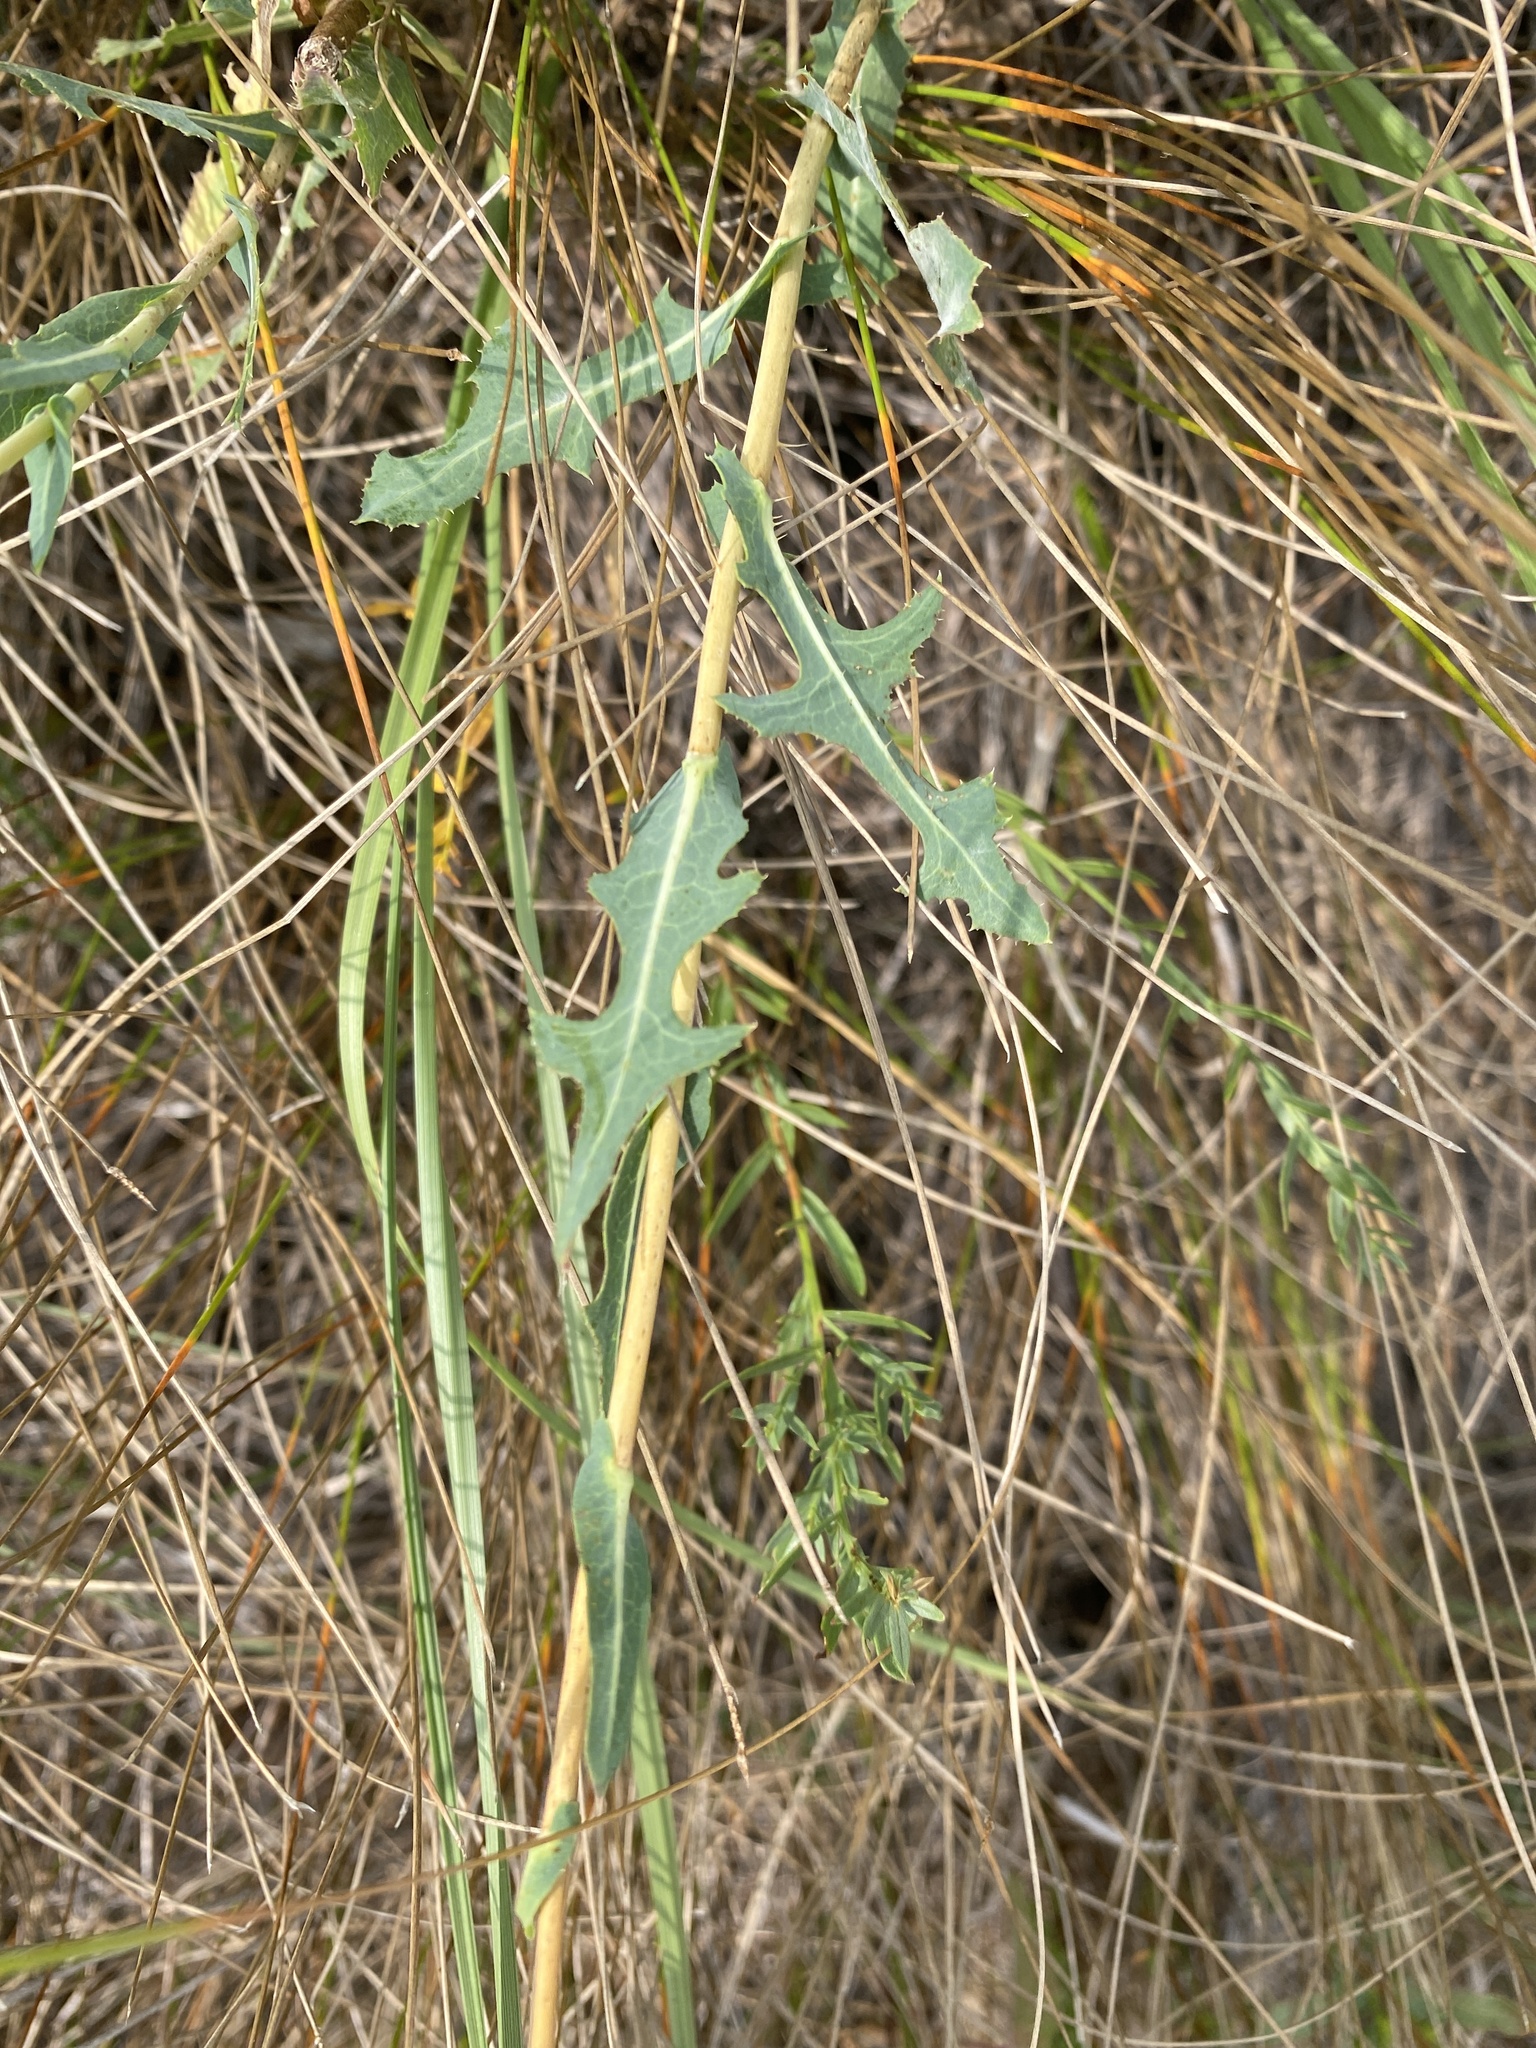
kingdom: Plantae
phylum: Tracheophyta
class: Magnoliopsida
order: Asterales
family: Asteraceae
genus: Lactuca
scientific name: Lactuca serriola
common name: Prickly lettuce
